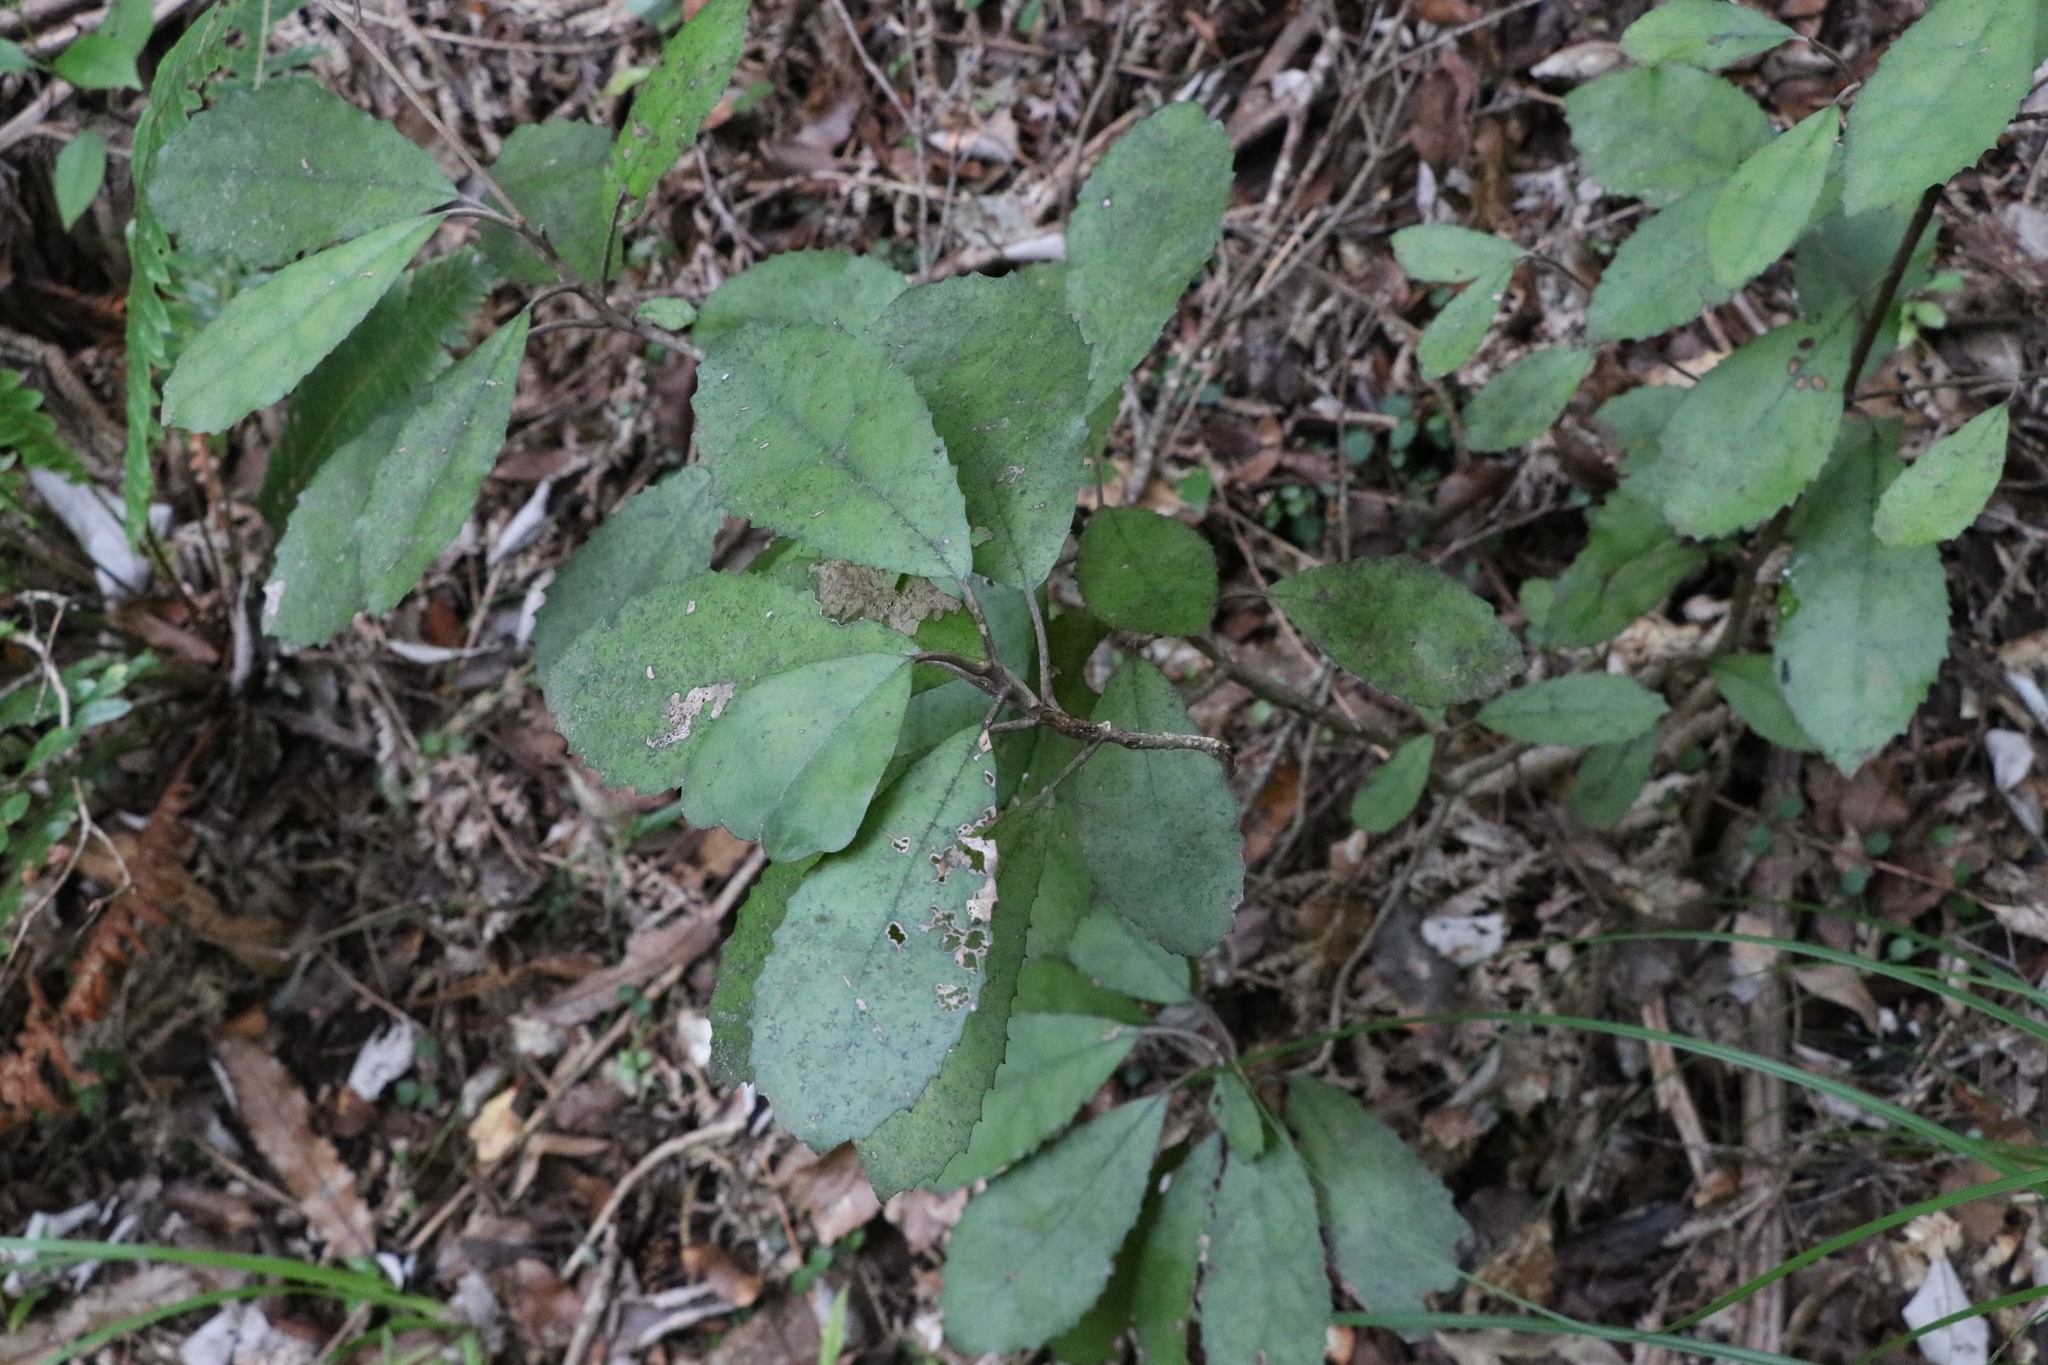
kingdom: Plantae
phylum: Tracheophyta
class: Magnoliopsida
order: Asterales
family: Asteraceae
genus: Olearia
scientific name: Olearia rani
